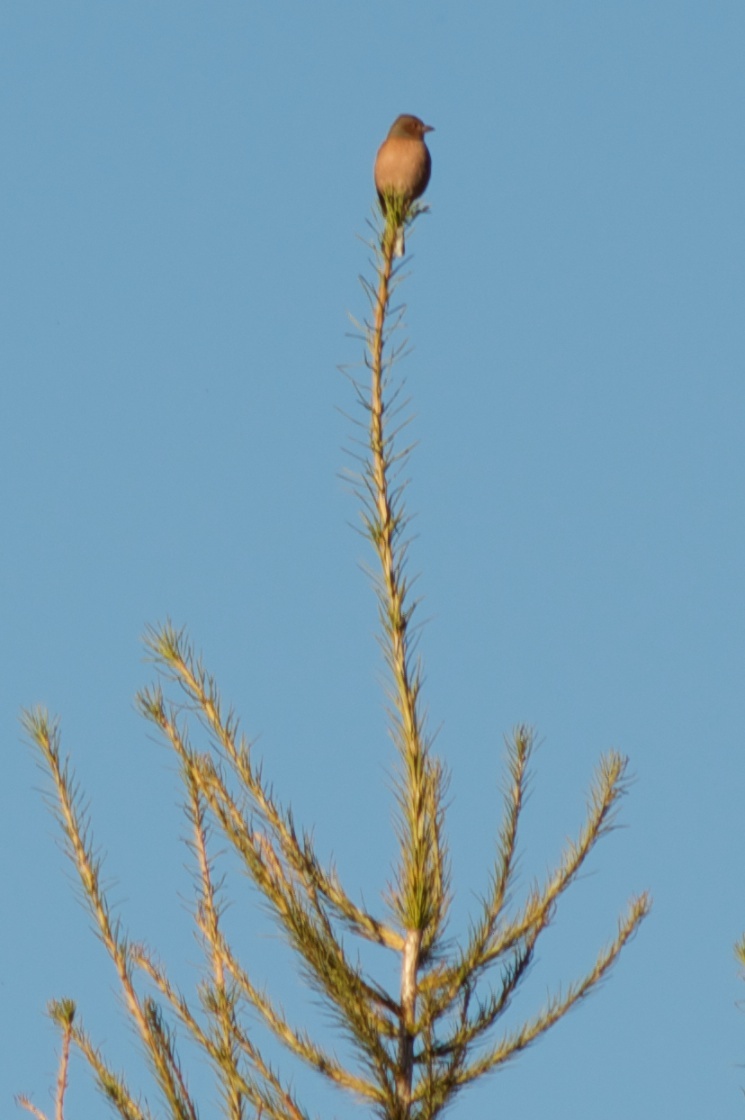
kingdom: Animalia
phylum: Chordata
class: Aves
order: Passeriformes
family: Fringillidae
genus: Fringilla
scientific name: Fringilla coelebs
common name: Common chaffinch
